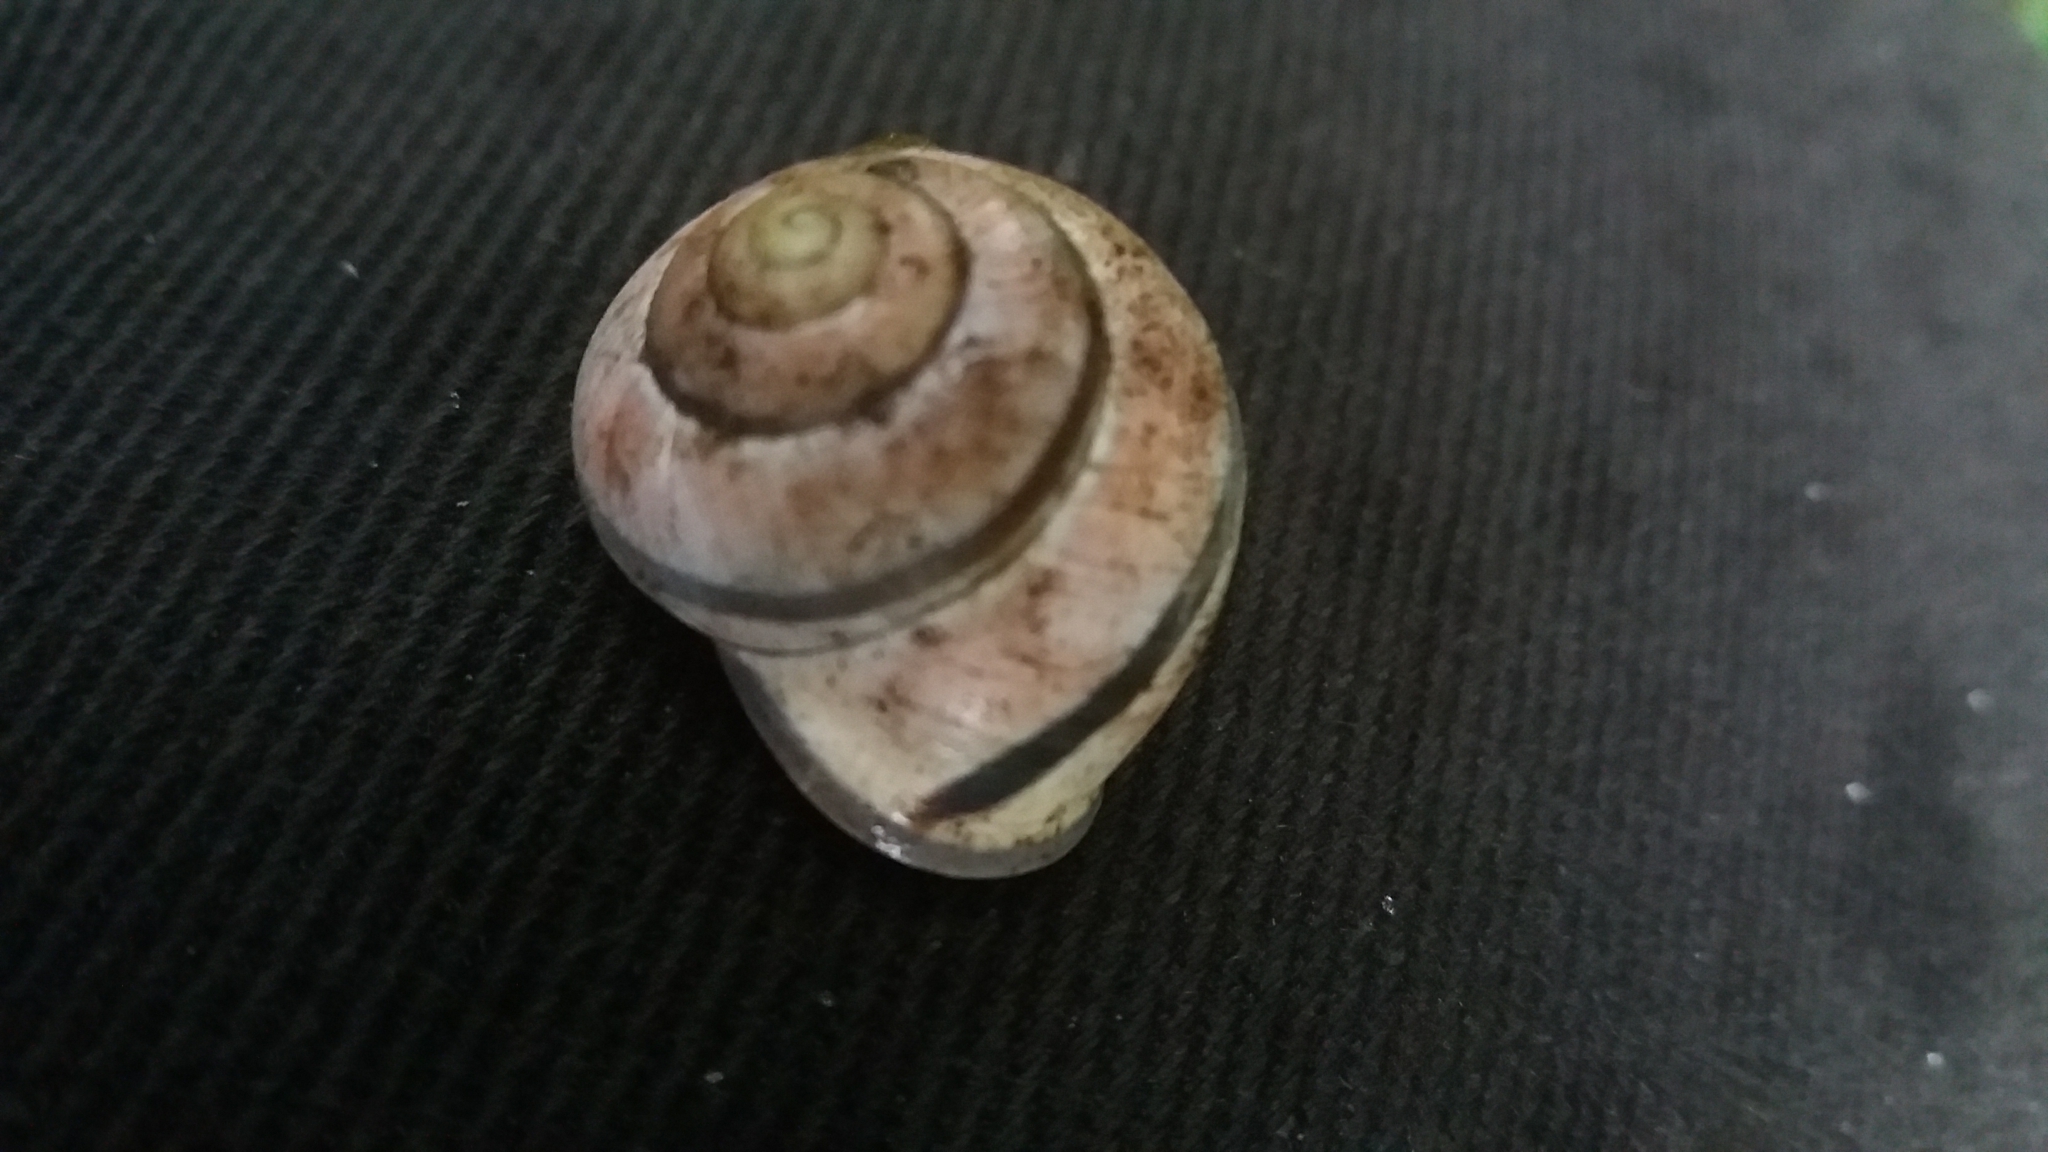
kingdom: Animalia
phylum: Mollusca
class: Gastropoda
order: Stylommatophora
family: Helicidae
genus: Cepaea
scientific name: Cepaea nemoralis
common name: Grovesnail
